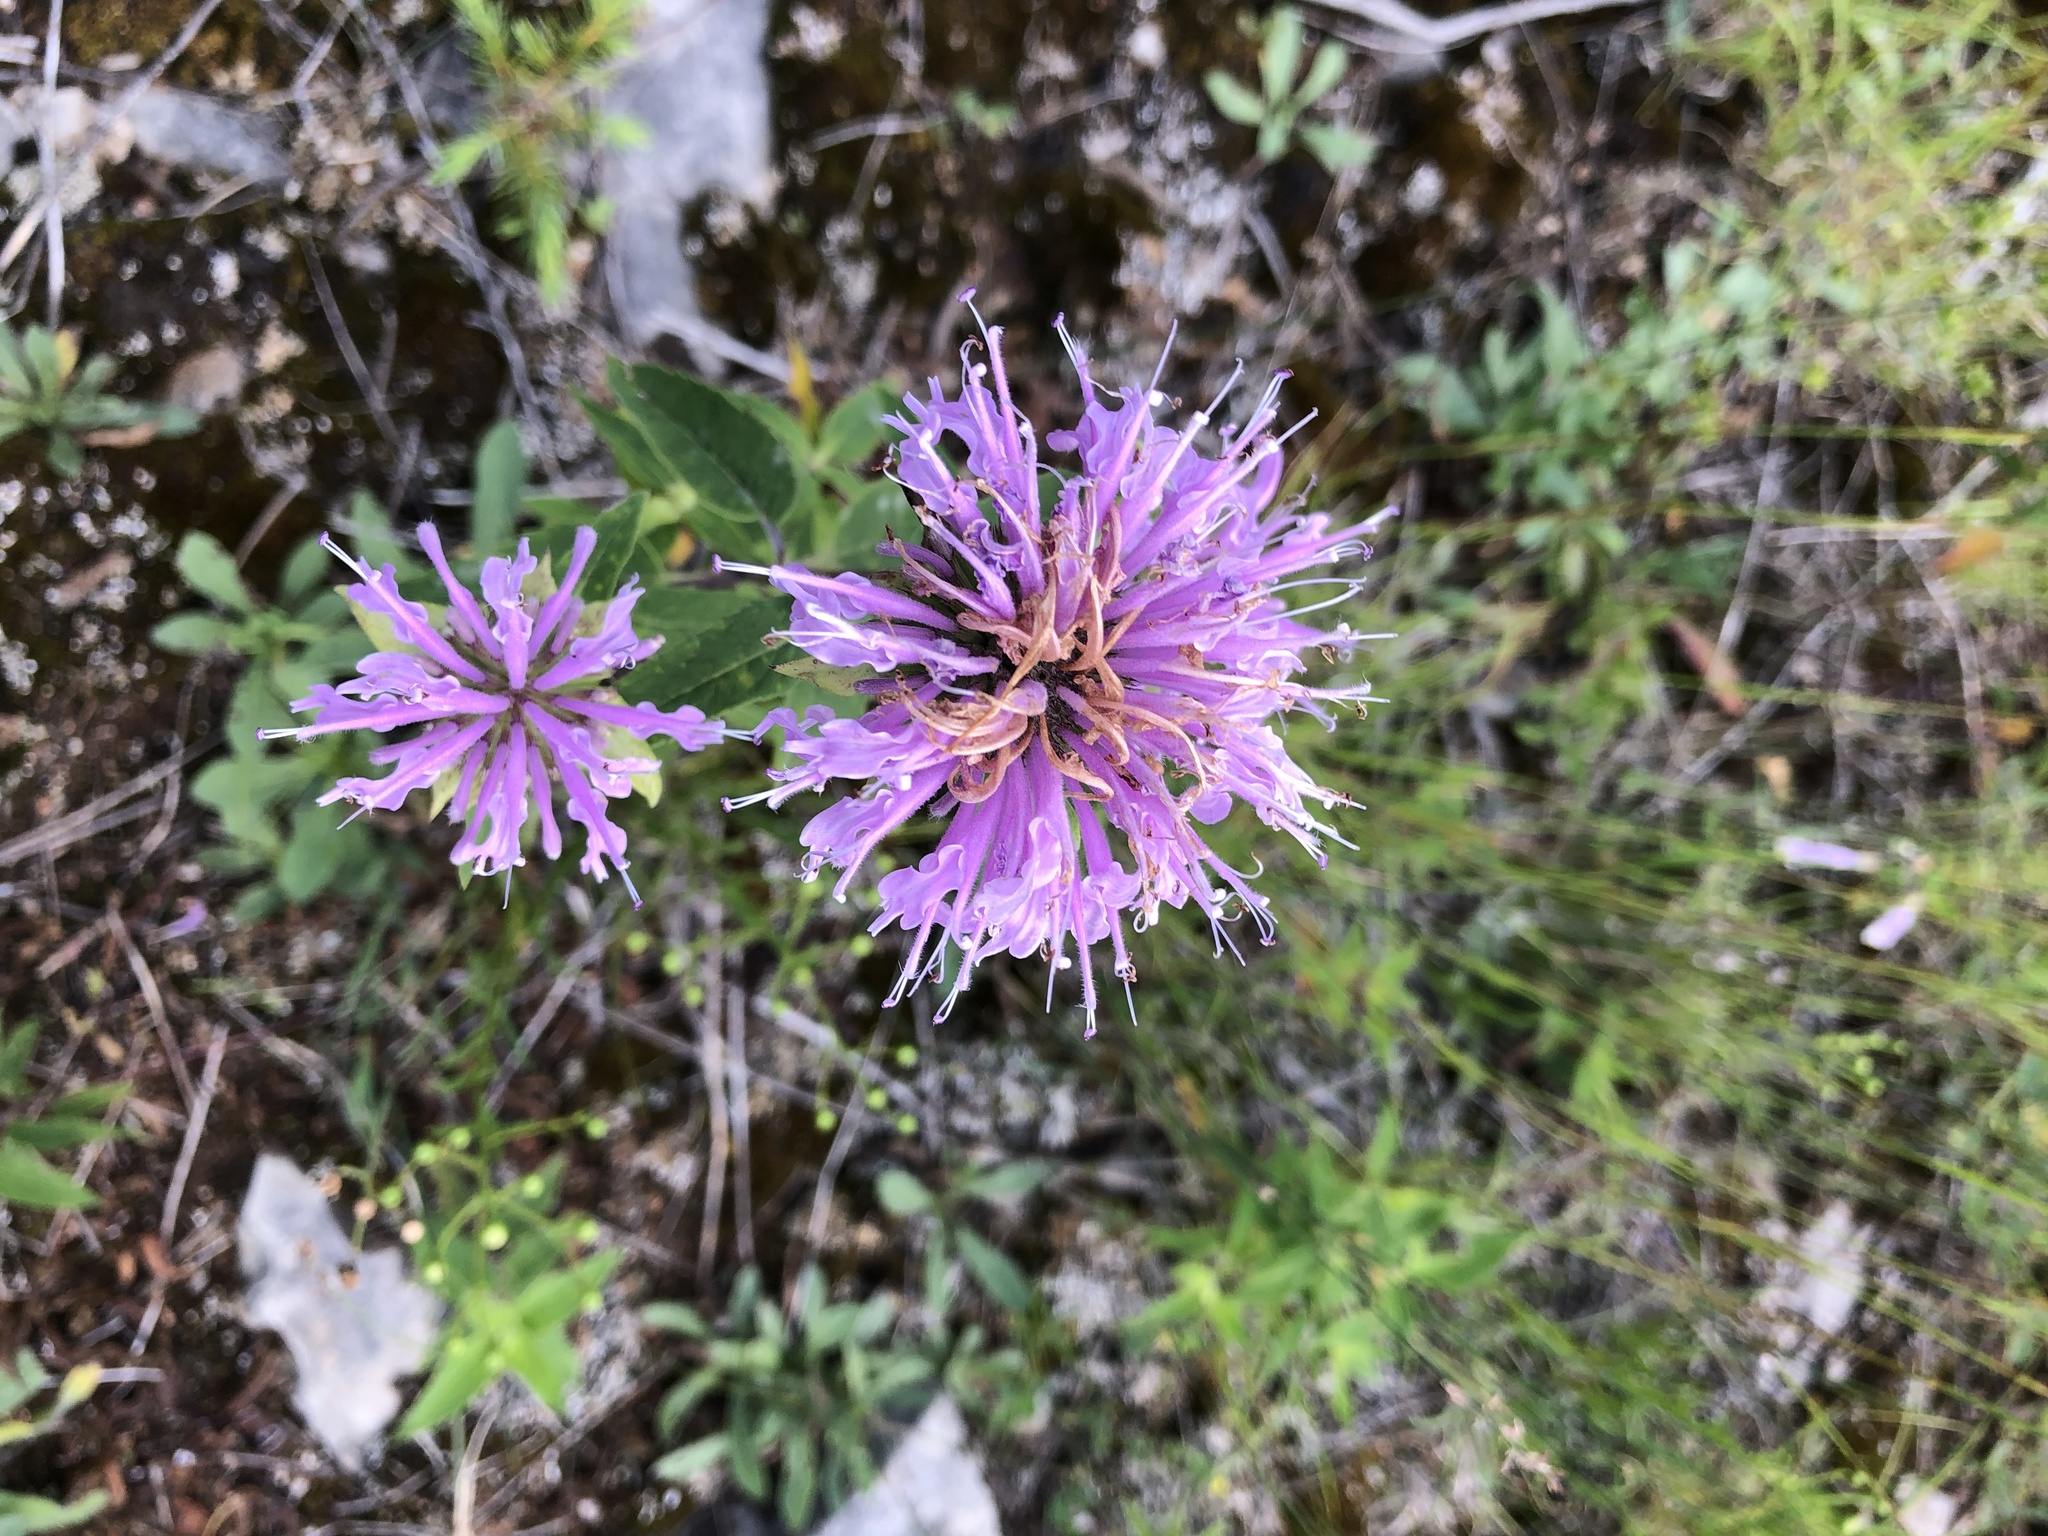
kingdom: Plantae
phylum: Tracheophyta
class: Magnoliopsida
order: Lamiales
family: Lamiaceae
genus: Monarda
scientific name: Monarda fistulosa
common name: Purple beebalm
